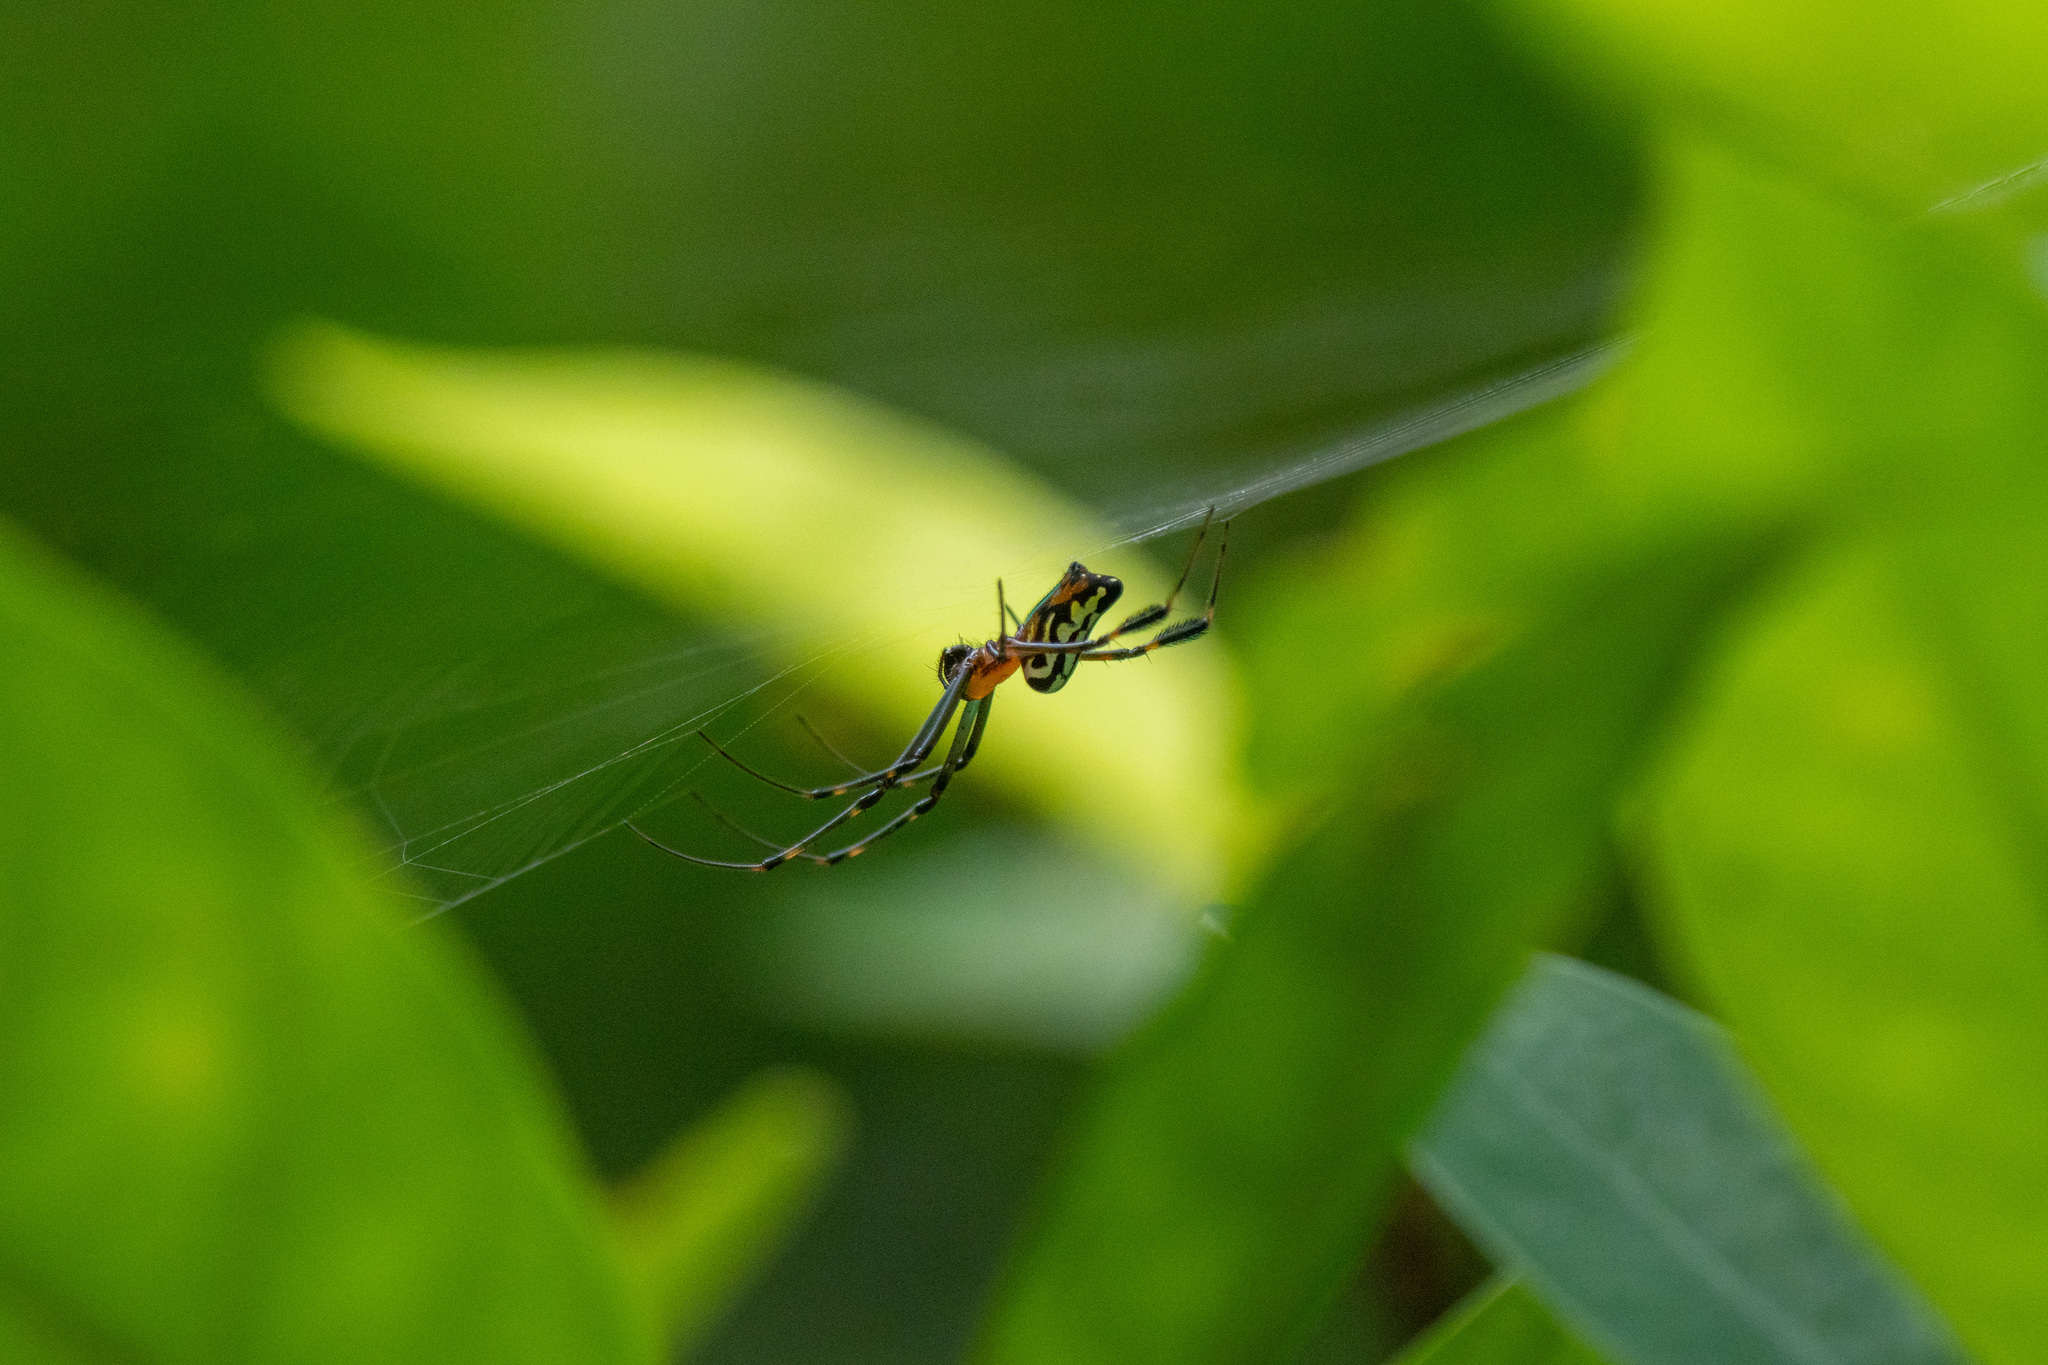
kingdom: Animalia
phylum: Arthropoda
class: Arachnida
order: Araneae
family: Tetragnathidae
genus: Leucauge
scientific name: Leucauge tessellata
